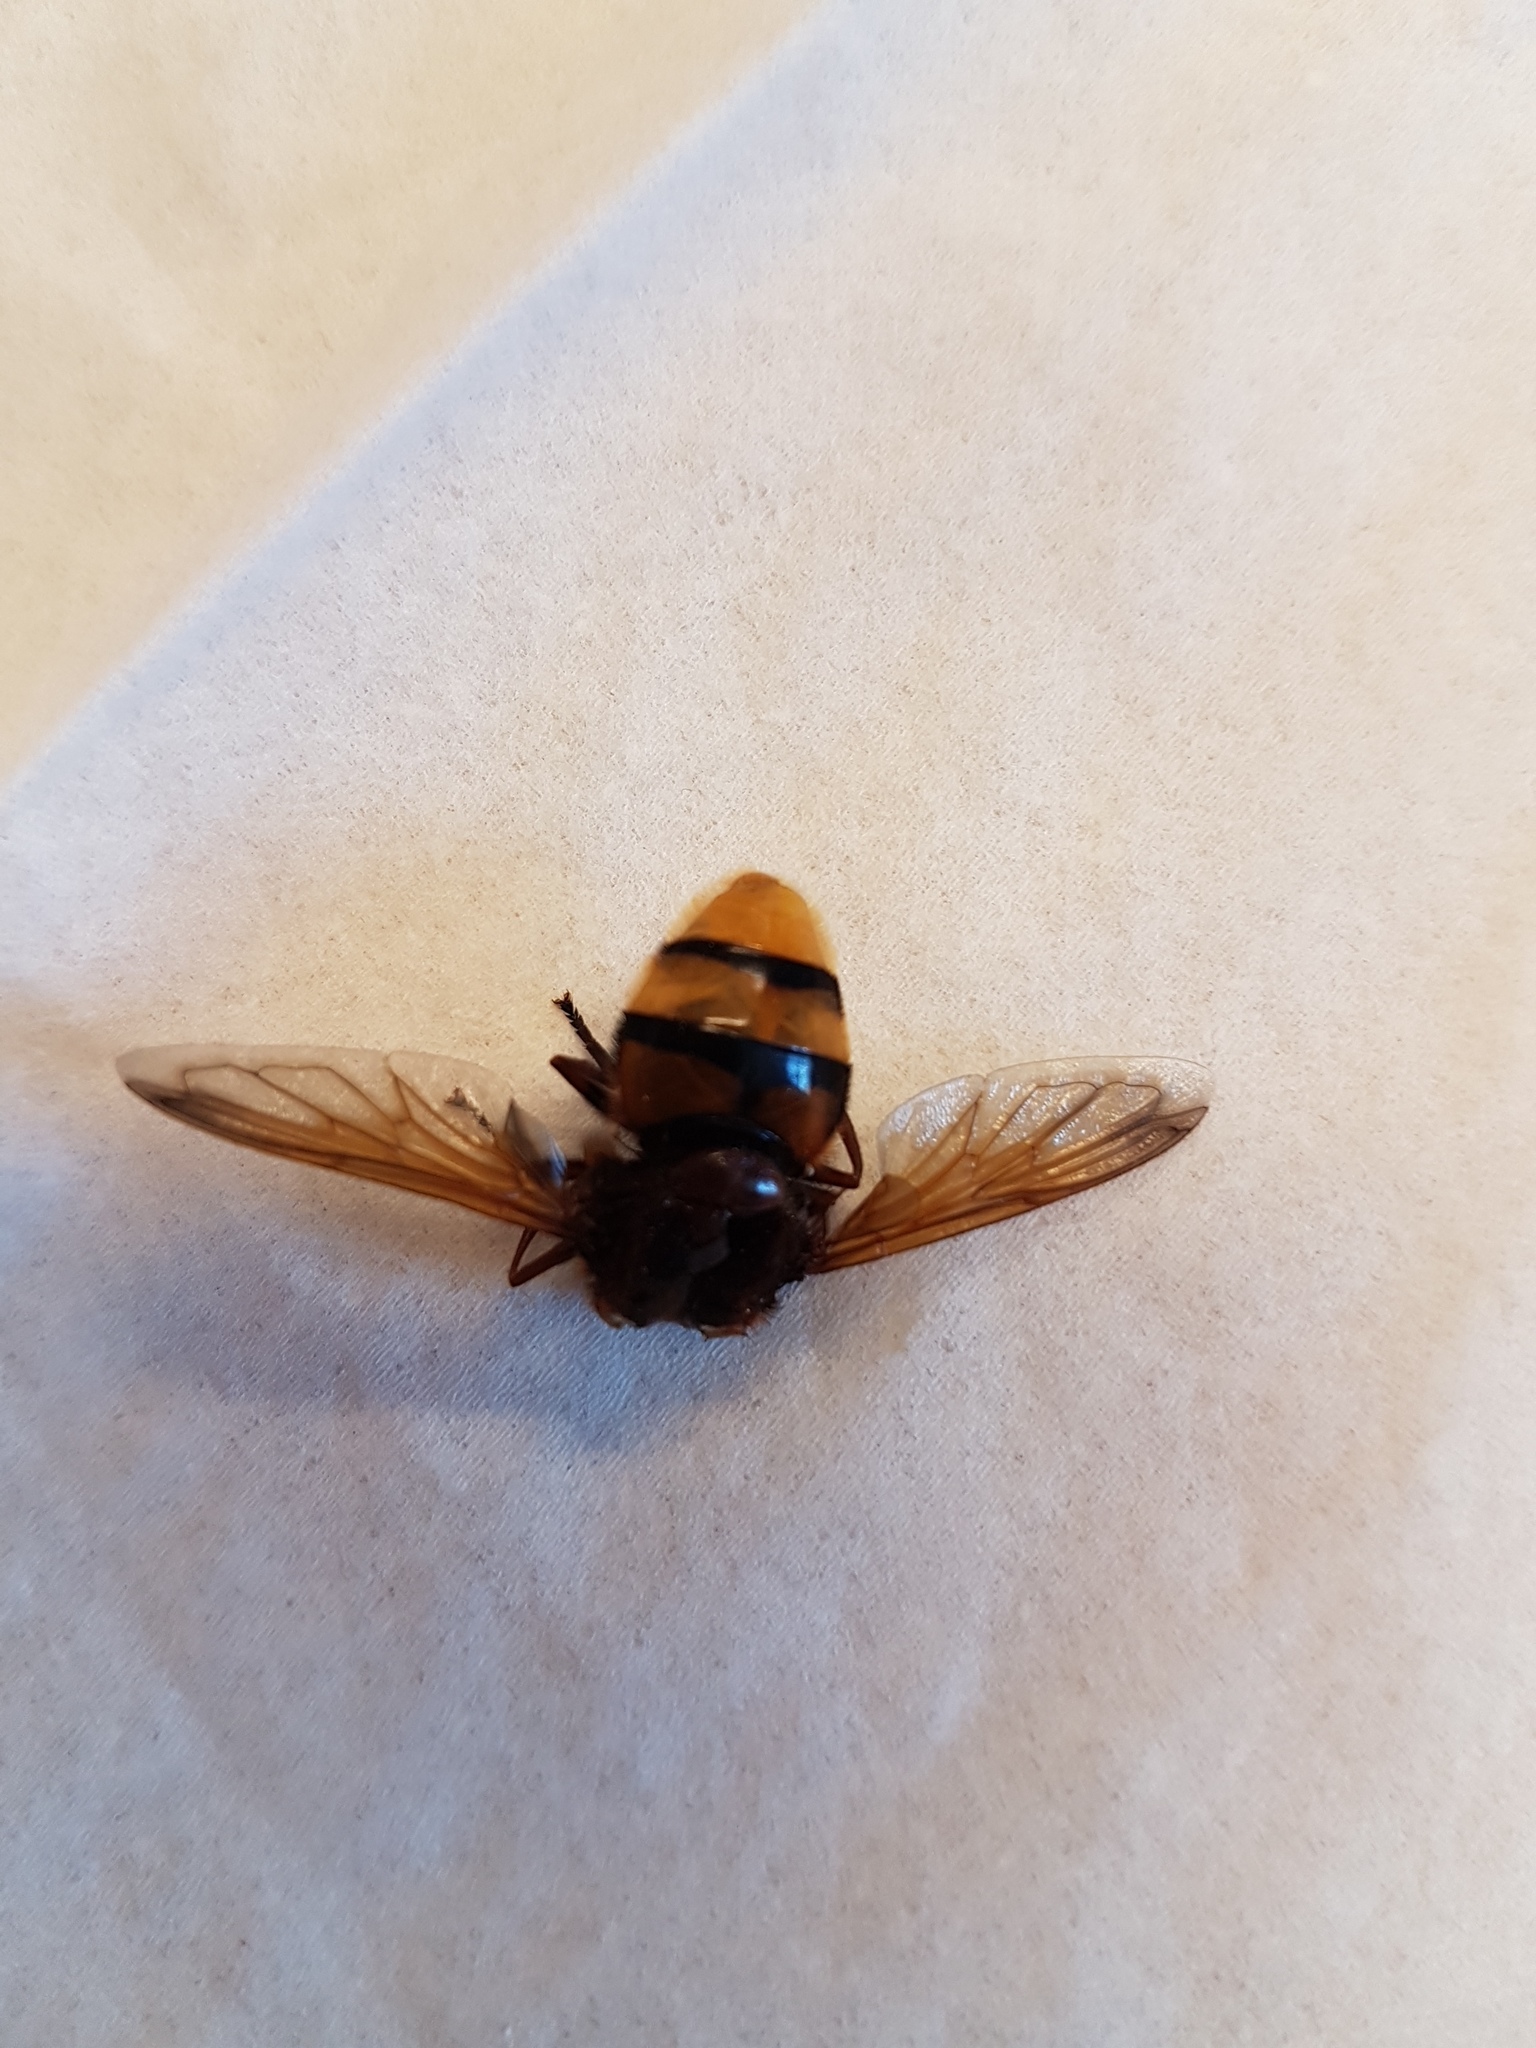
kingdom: Animalia
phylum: Arthropoda
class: Insecta
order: Diptera
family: Syrphidae
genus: Volucella
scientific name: Volucella zonaria
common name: Hornet hoverfly
